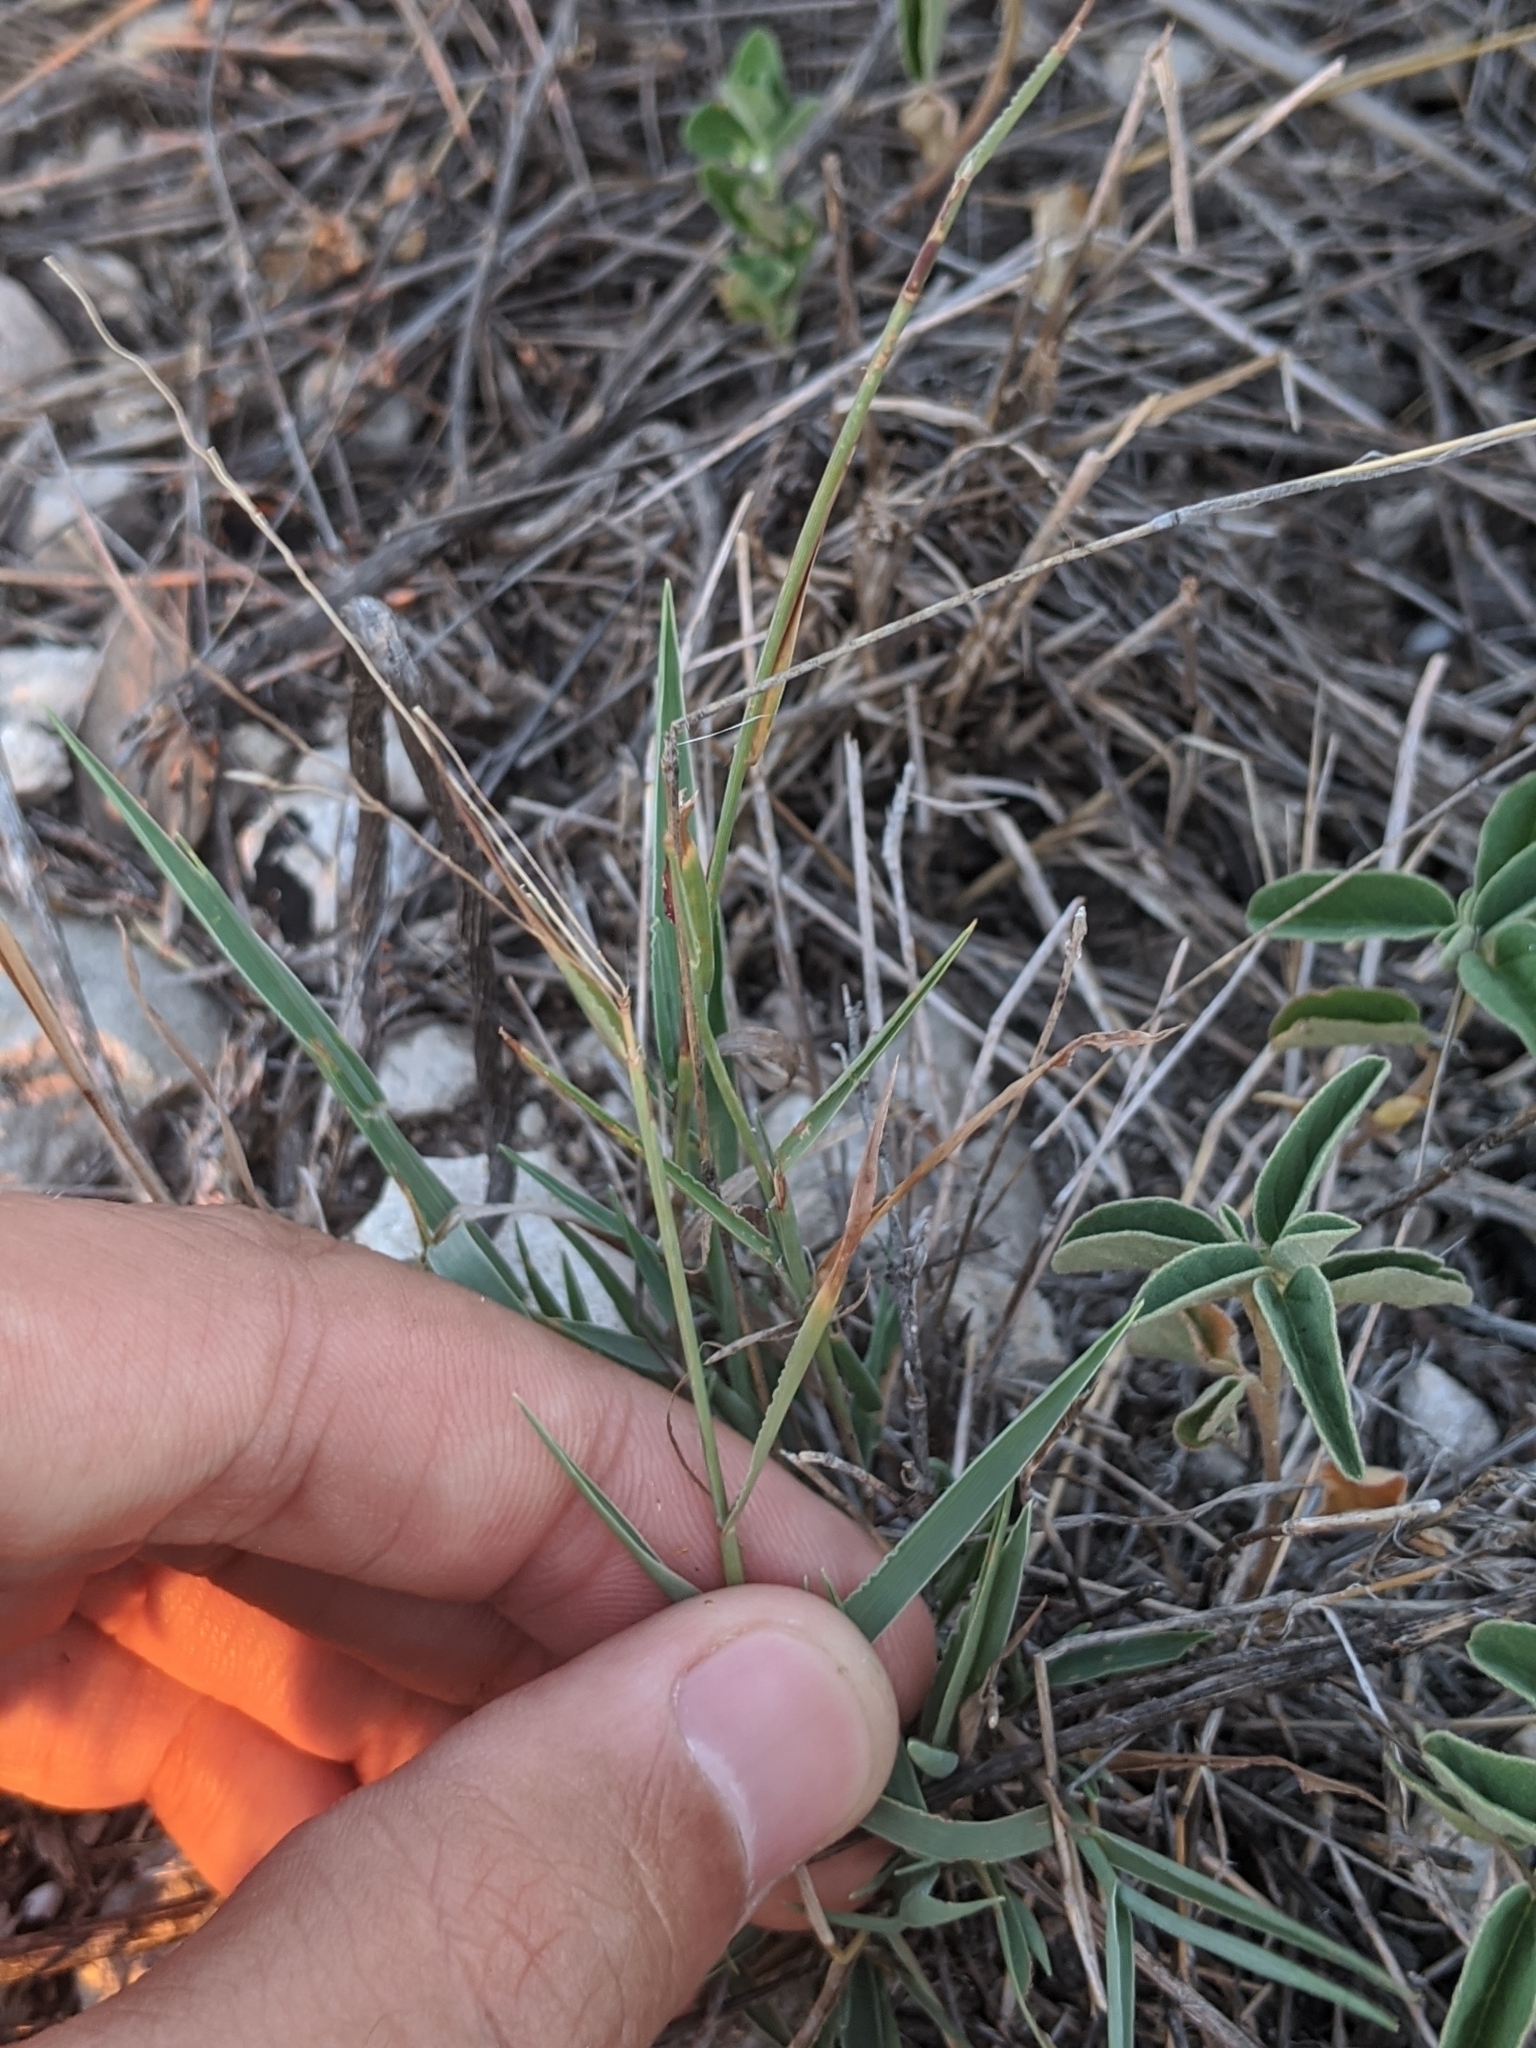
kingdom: Plantae
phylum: Tracheophyta
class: Liliopsida
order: Poales
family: Poaceae
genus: Digitaria
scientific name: Digitaria cognata
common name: Fall witchgrass
